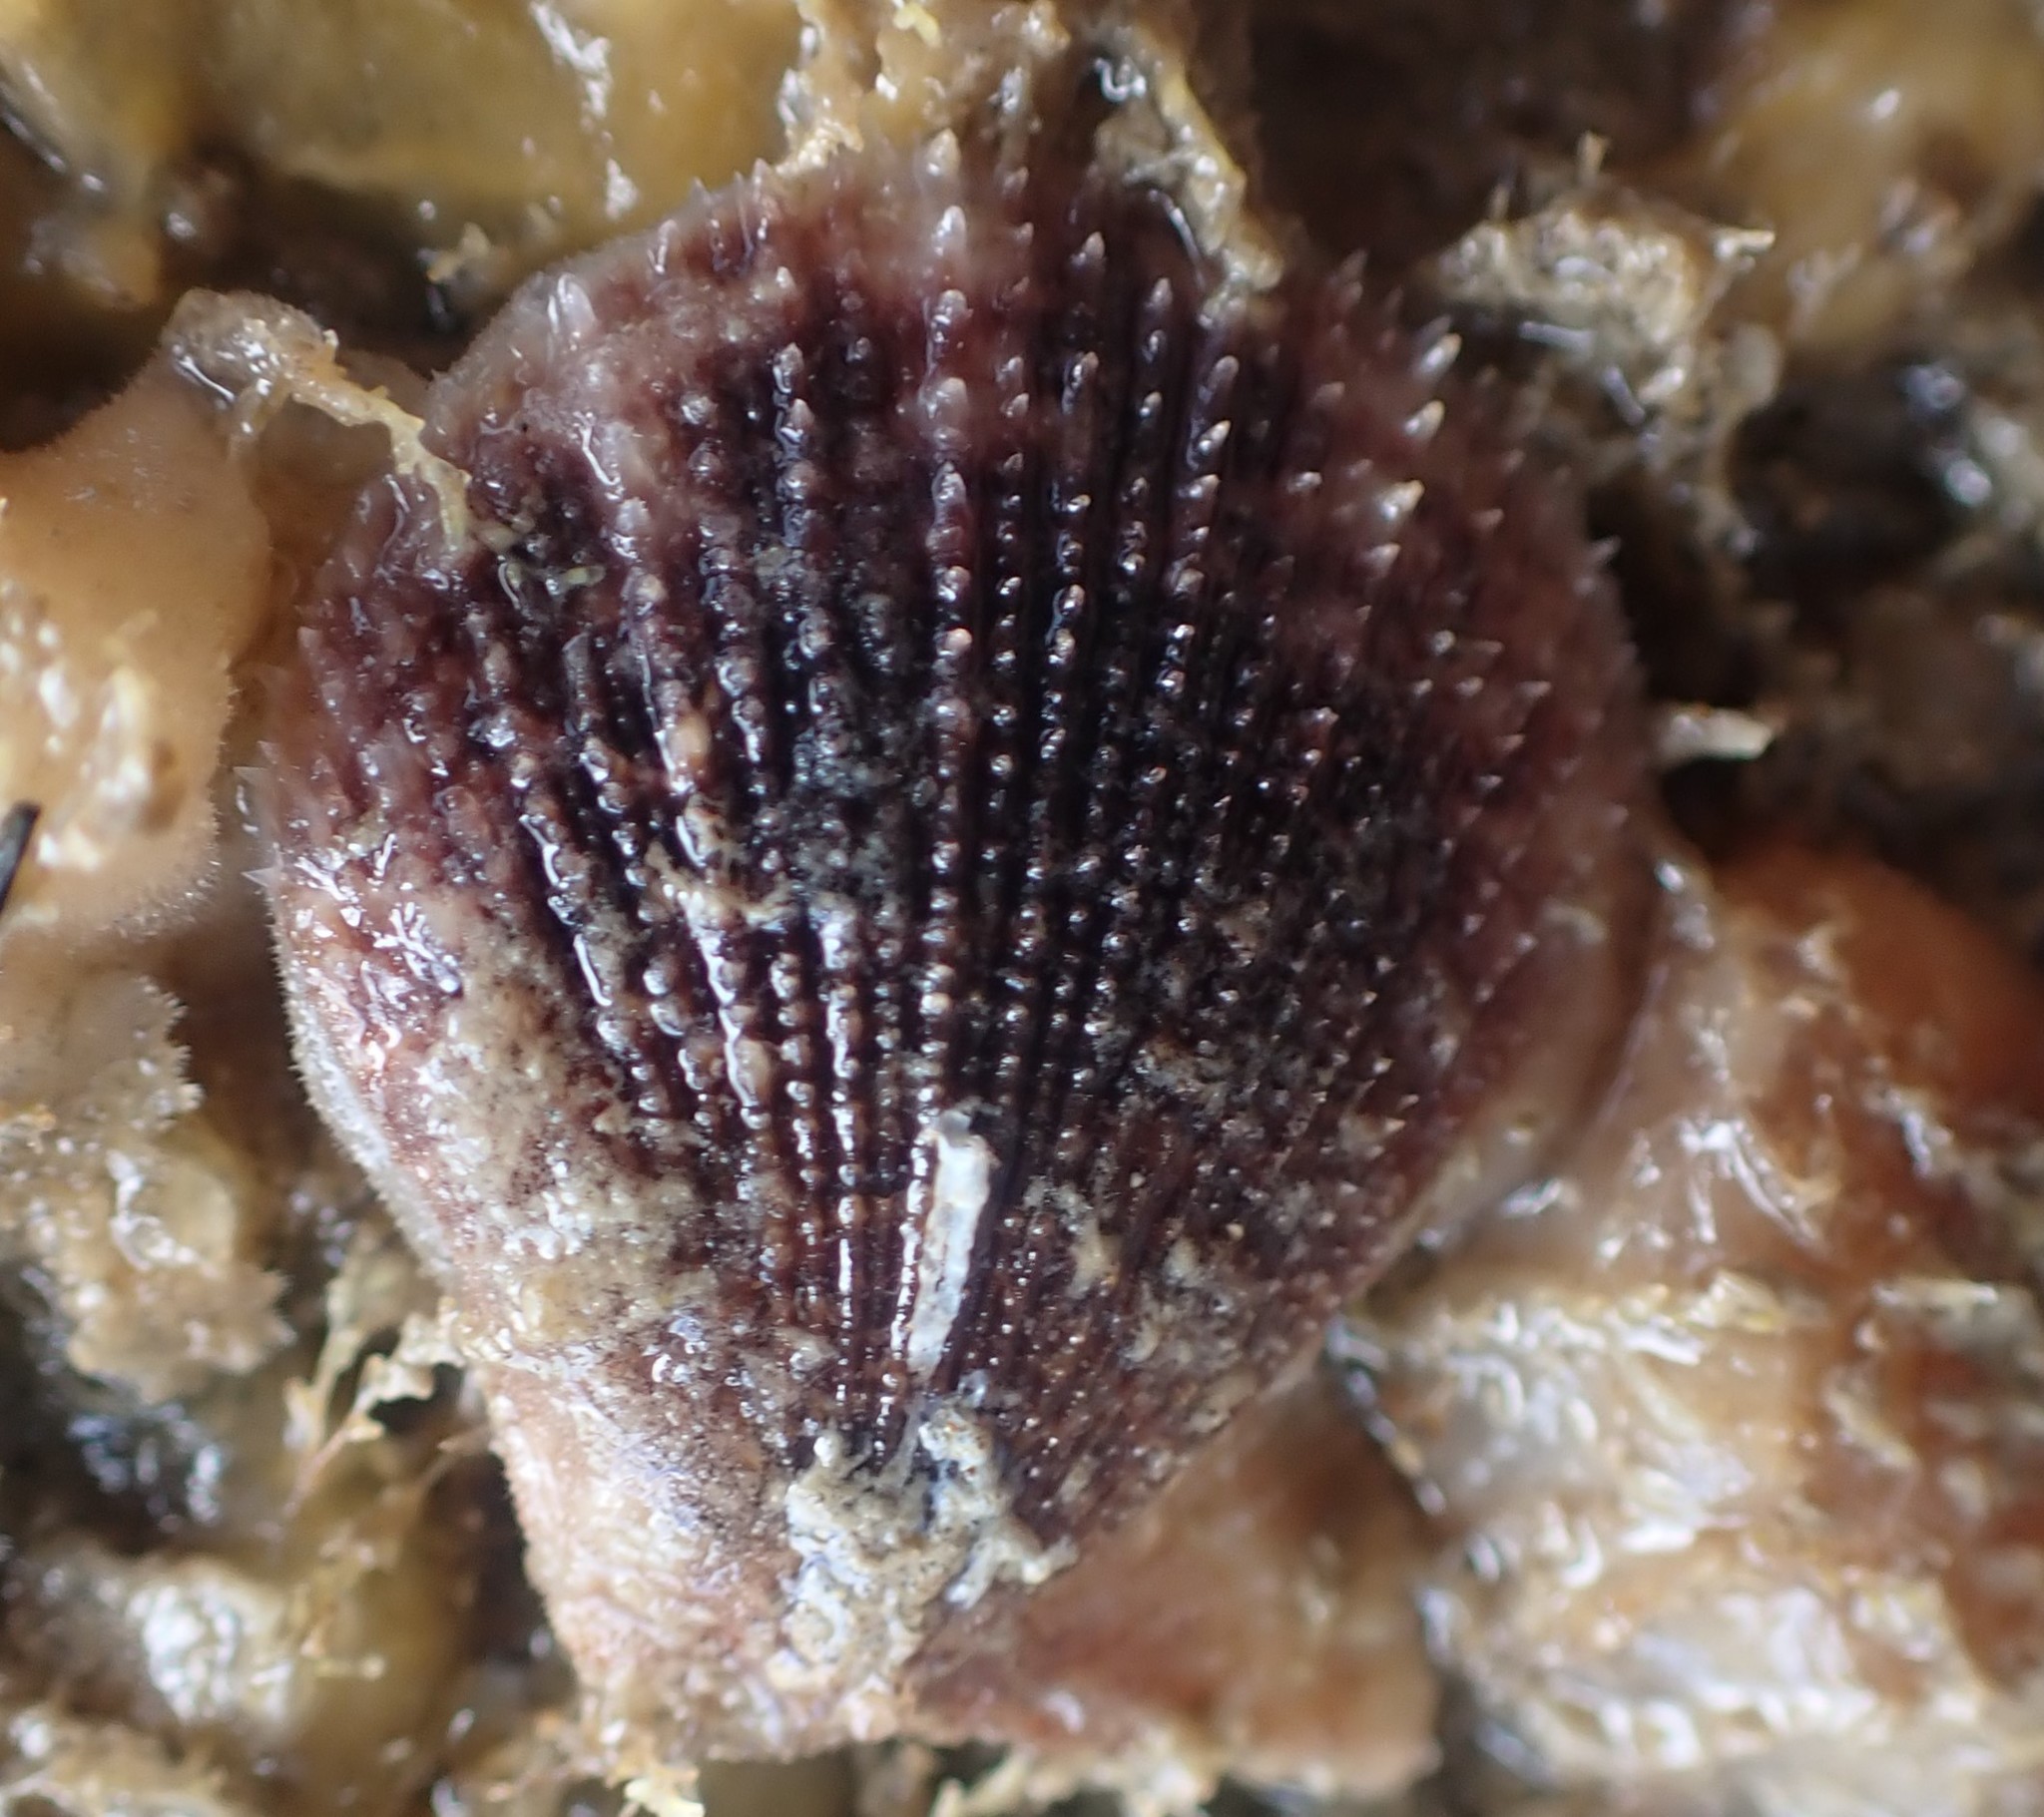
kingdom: Animalia
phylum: Mollusca
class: Bivalvia
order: Pectinida
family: Pectinidae
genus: Talochlamys
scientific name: Talochlamys zelandiae
